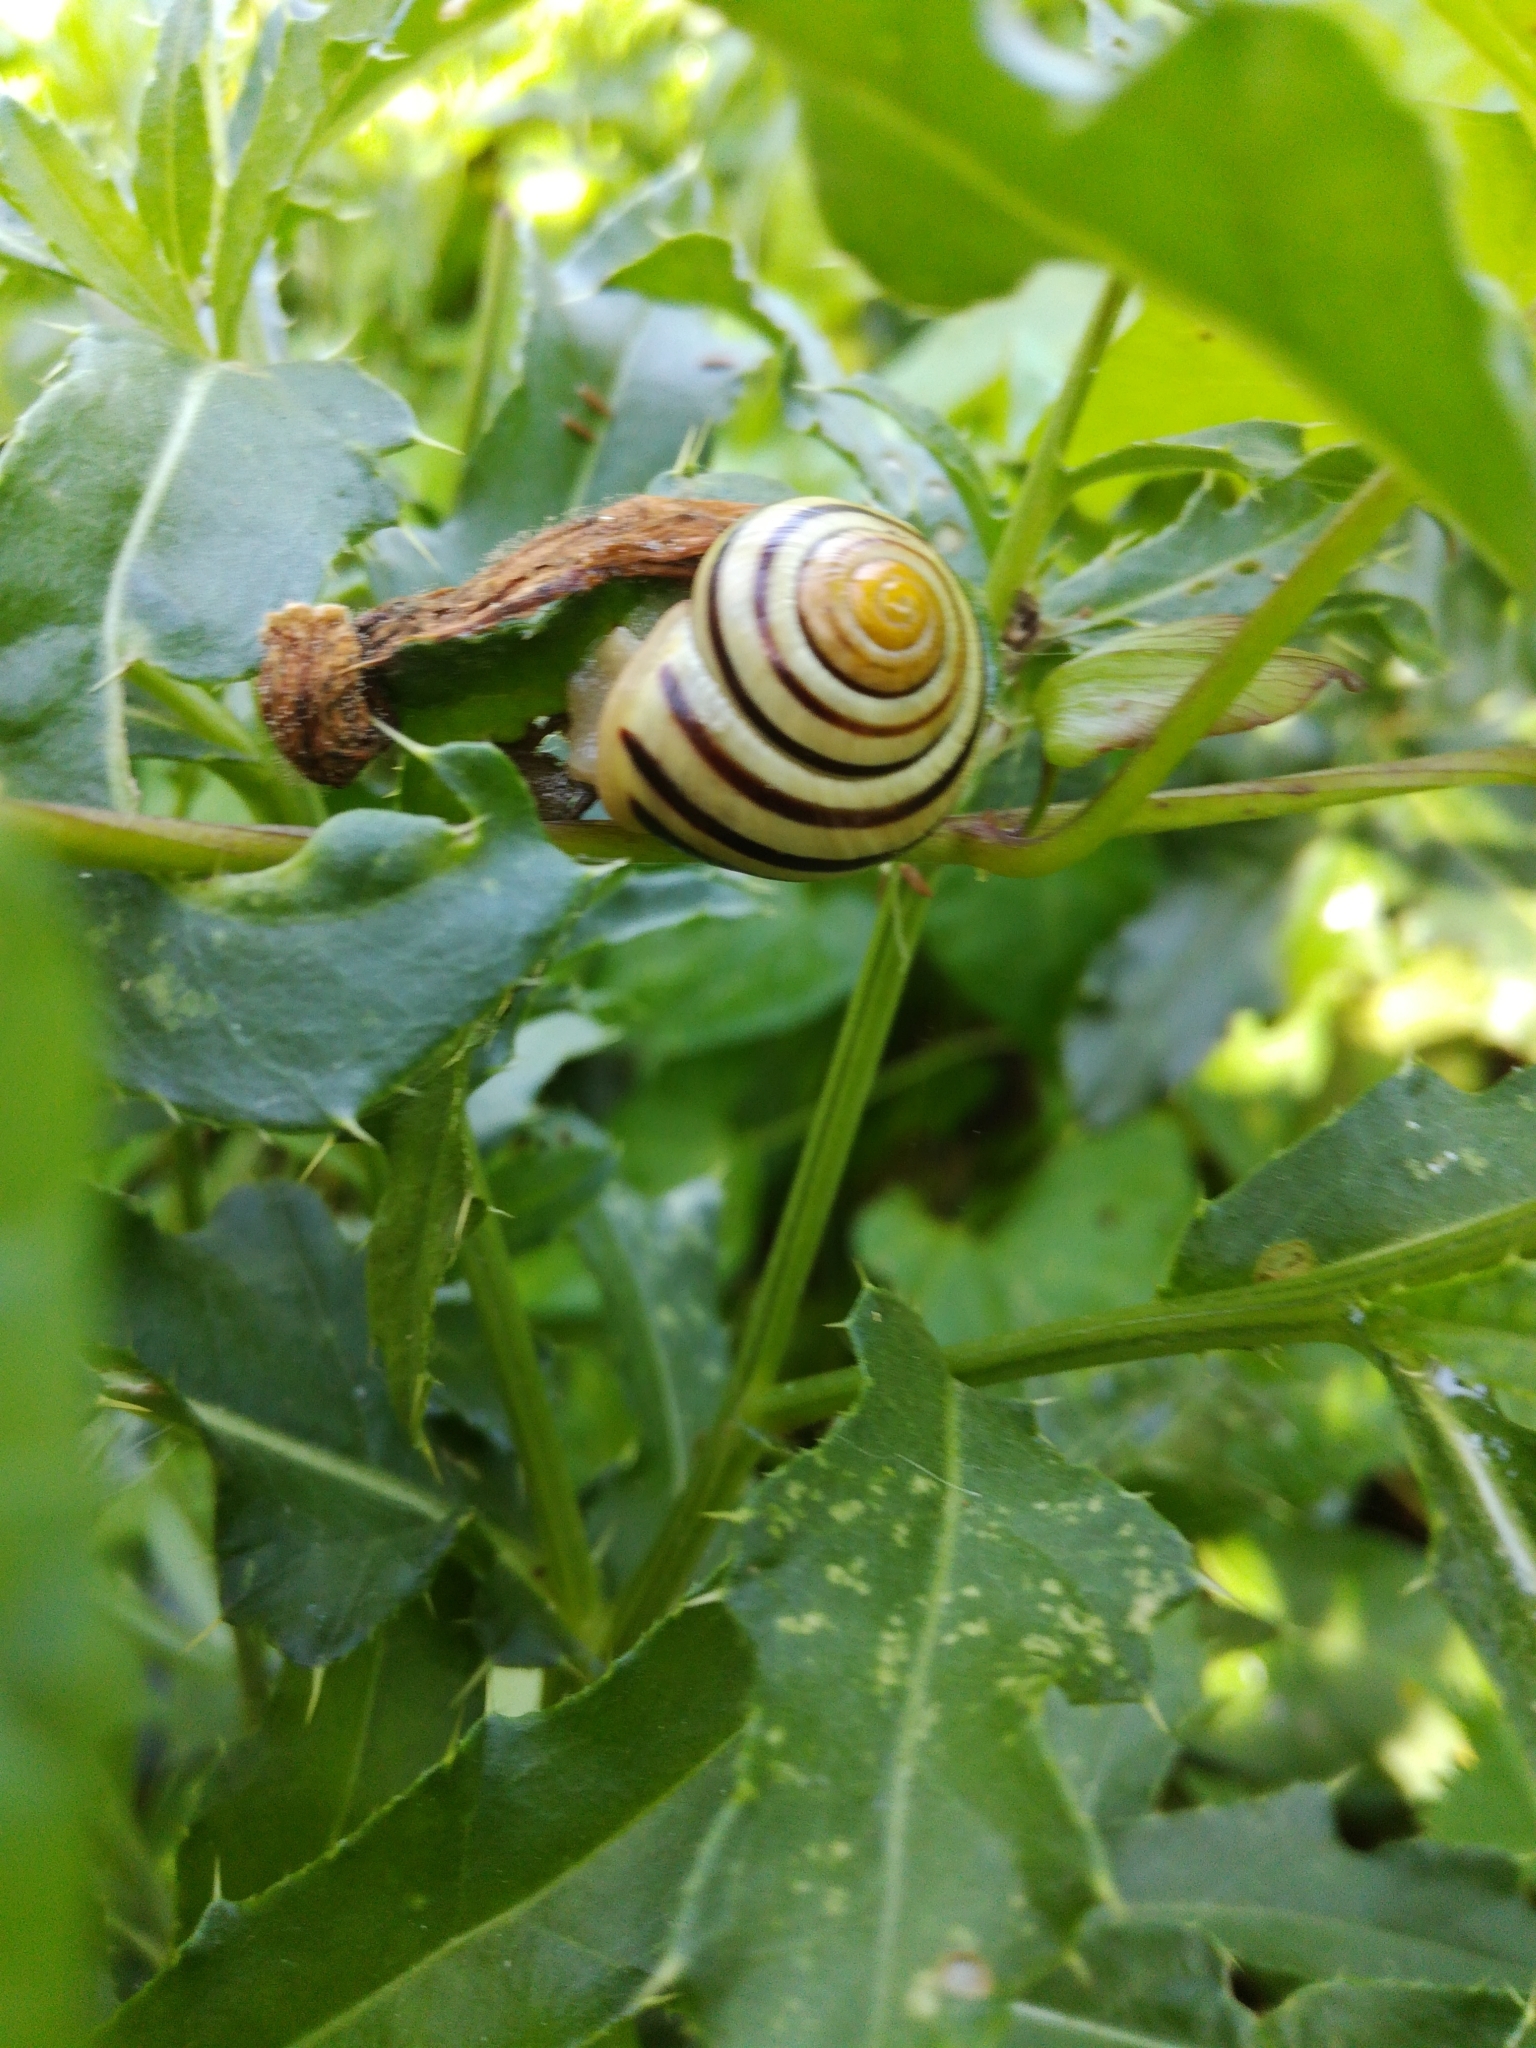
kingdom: Animalia
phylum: Mollusca
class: Gastropoda
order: Stylommatophora
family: Helicidae
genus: Cepaea
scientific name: Cepaea hortensis
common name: White-lip gardensnail
